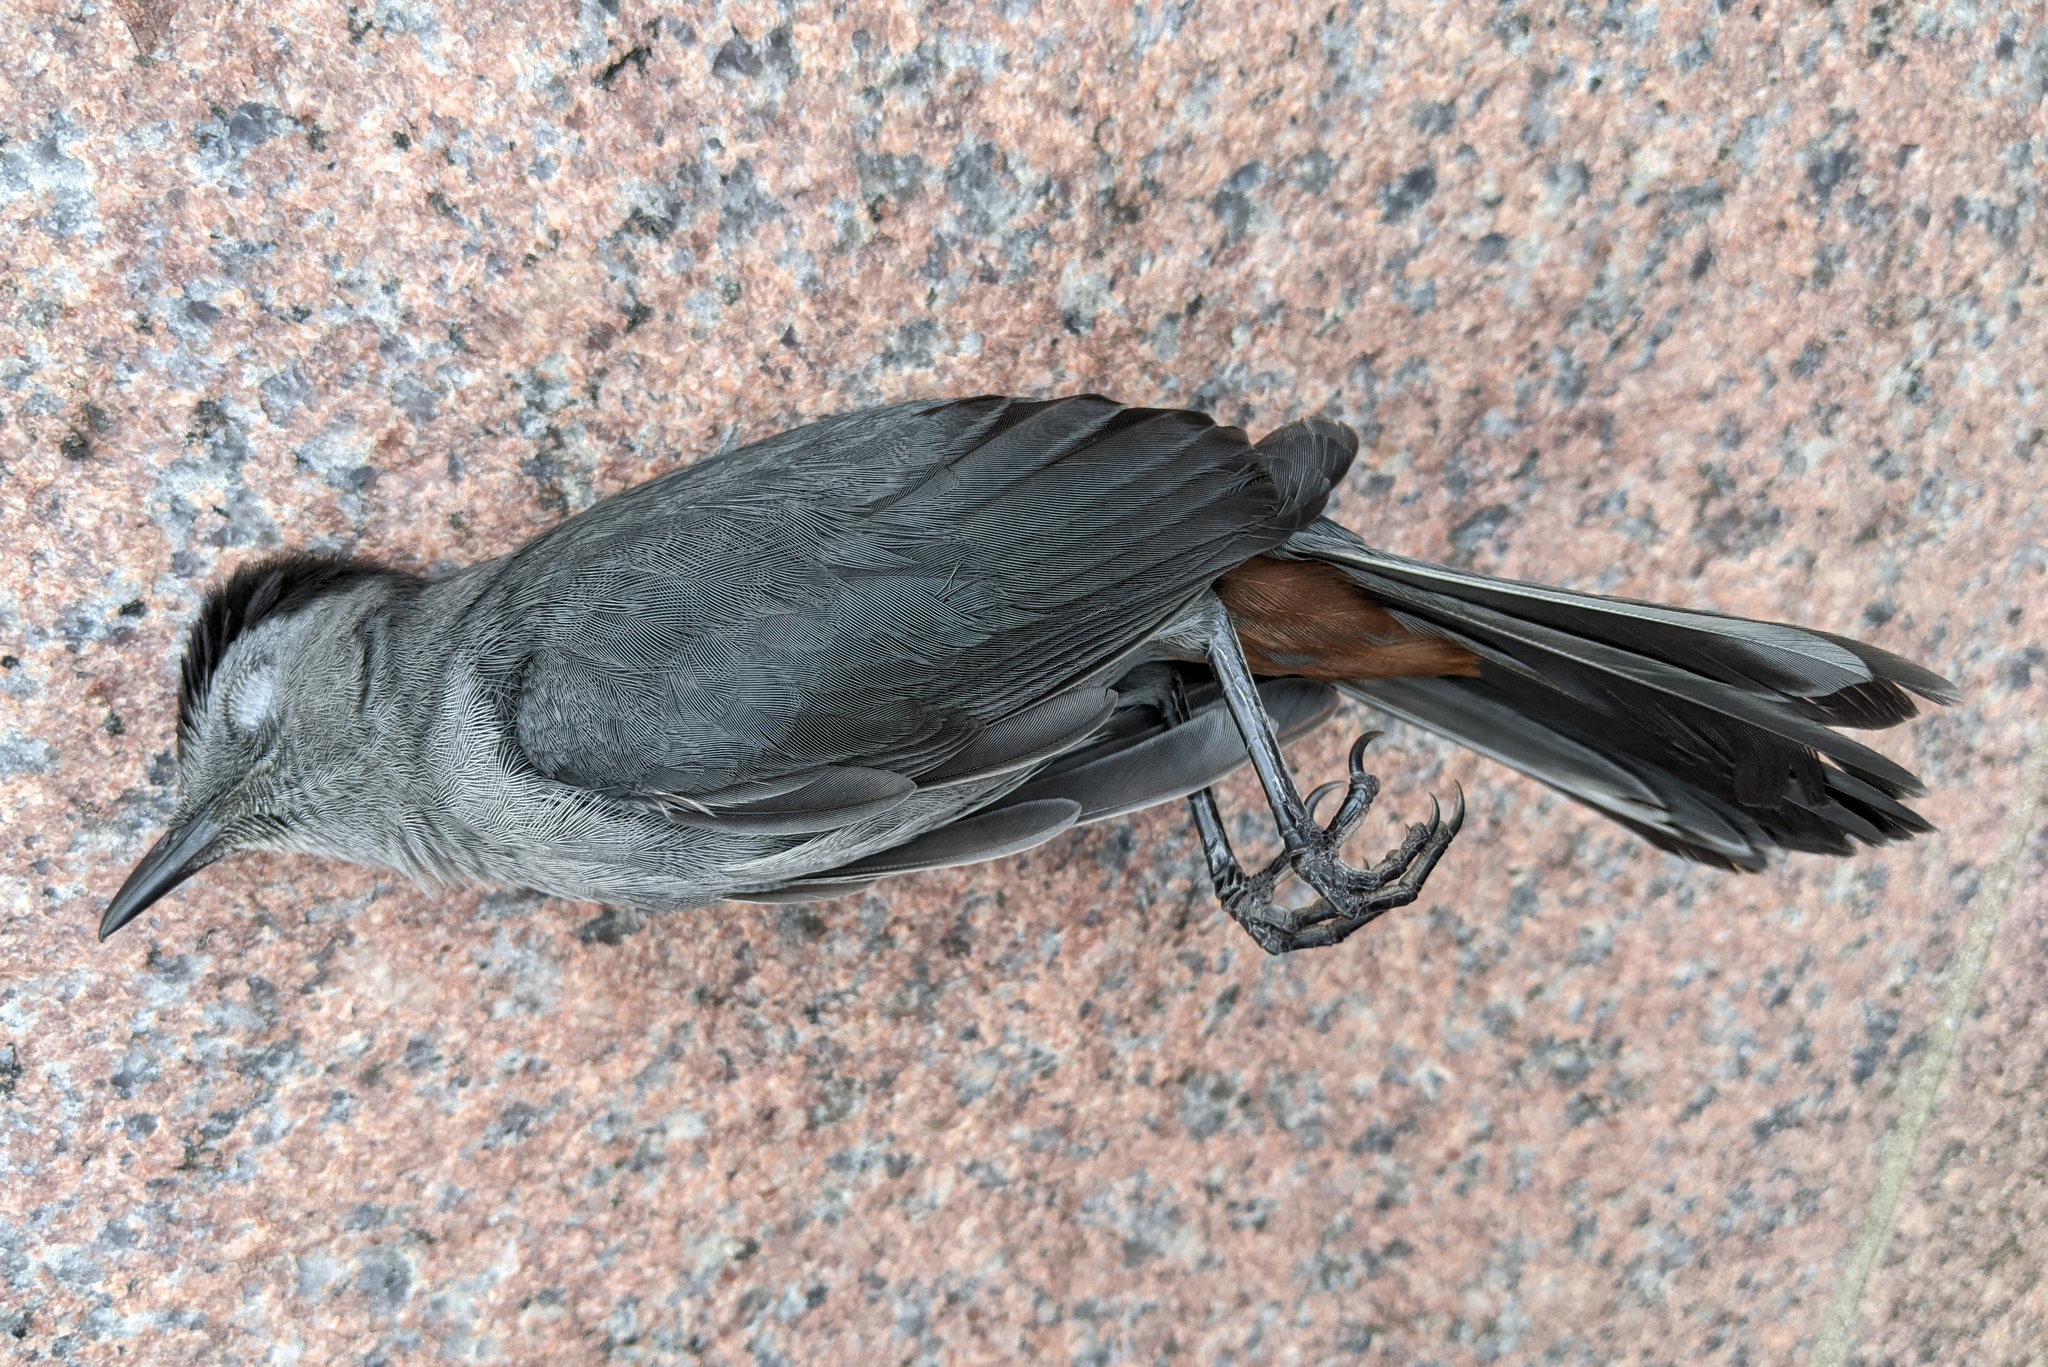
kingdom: Animalia
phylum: Chordata
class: Aves
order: Passeriformes
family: Mimidae
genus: Dumetella
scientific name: Dumetella carolinensis
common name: Gray catbird
